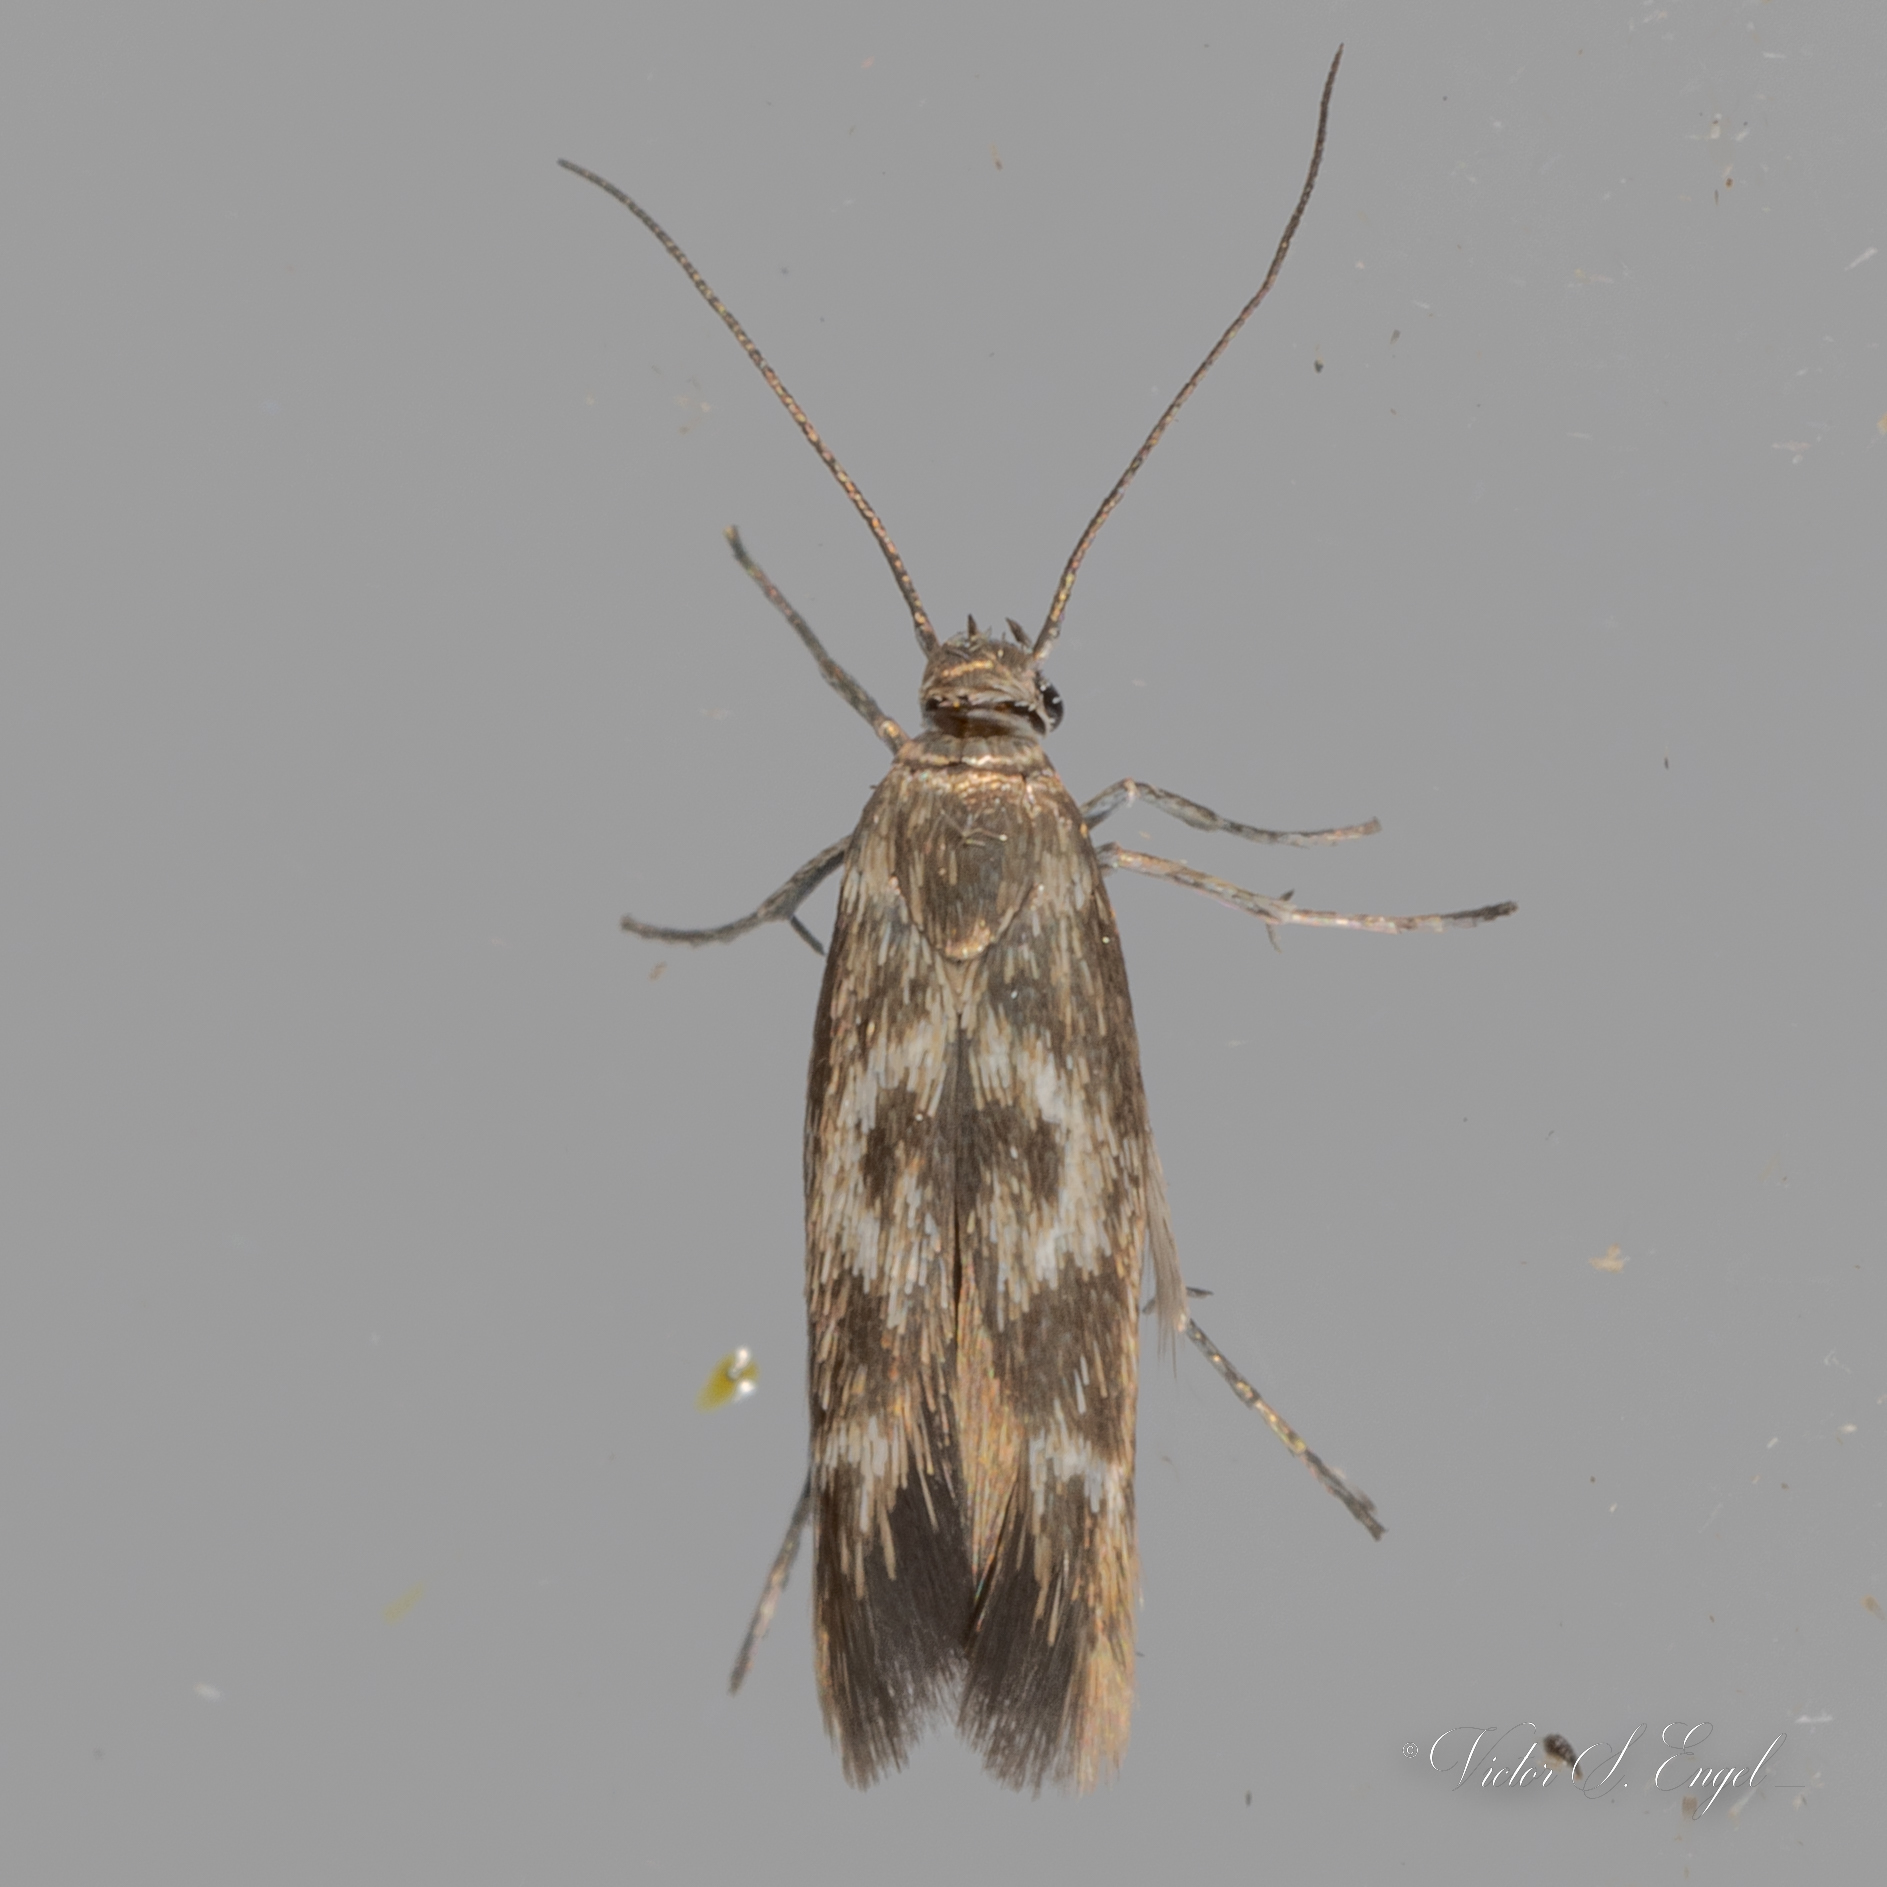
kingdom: Animalia
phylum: Arthropoda
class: Insecta
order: Lepidoptera
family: Scythrididae
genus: Scythris
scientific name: Scythris trivinctella
